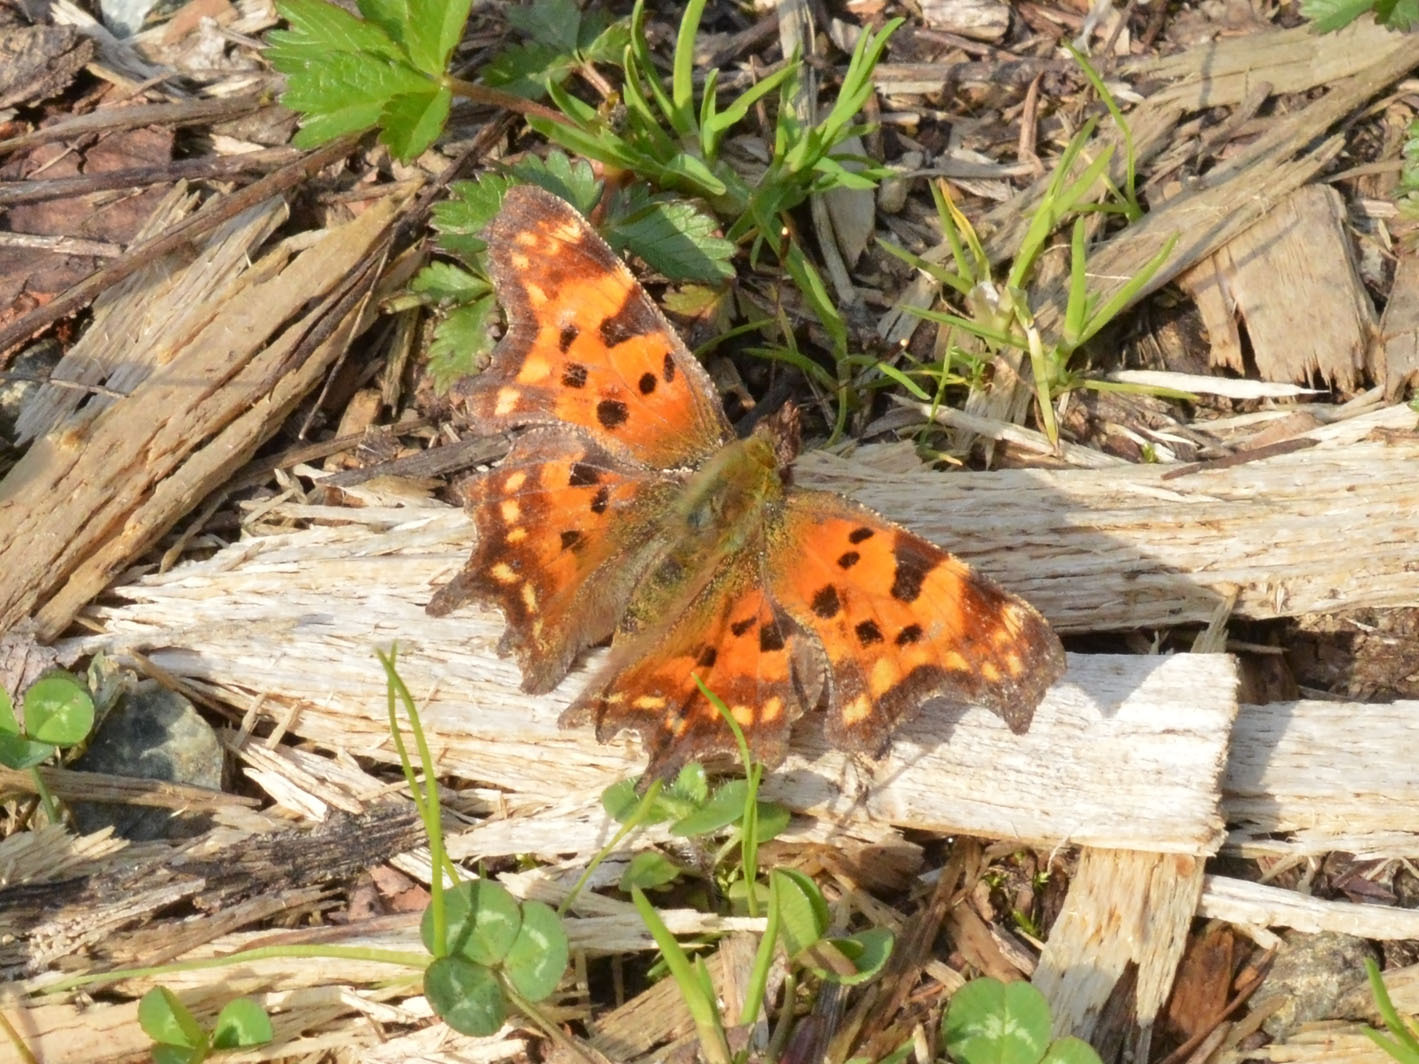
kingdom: Animalia
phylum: Arthropoda
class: Insecta
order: Lepidoptera
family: Nymphalidae
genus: Polygonia
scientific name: Polygonia c-album
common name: Comma
